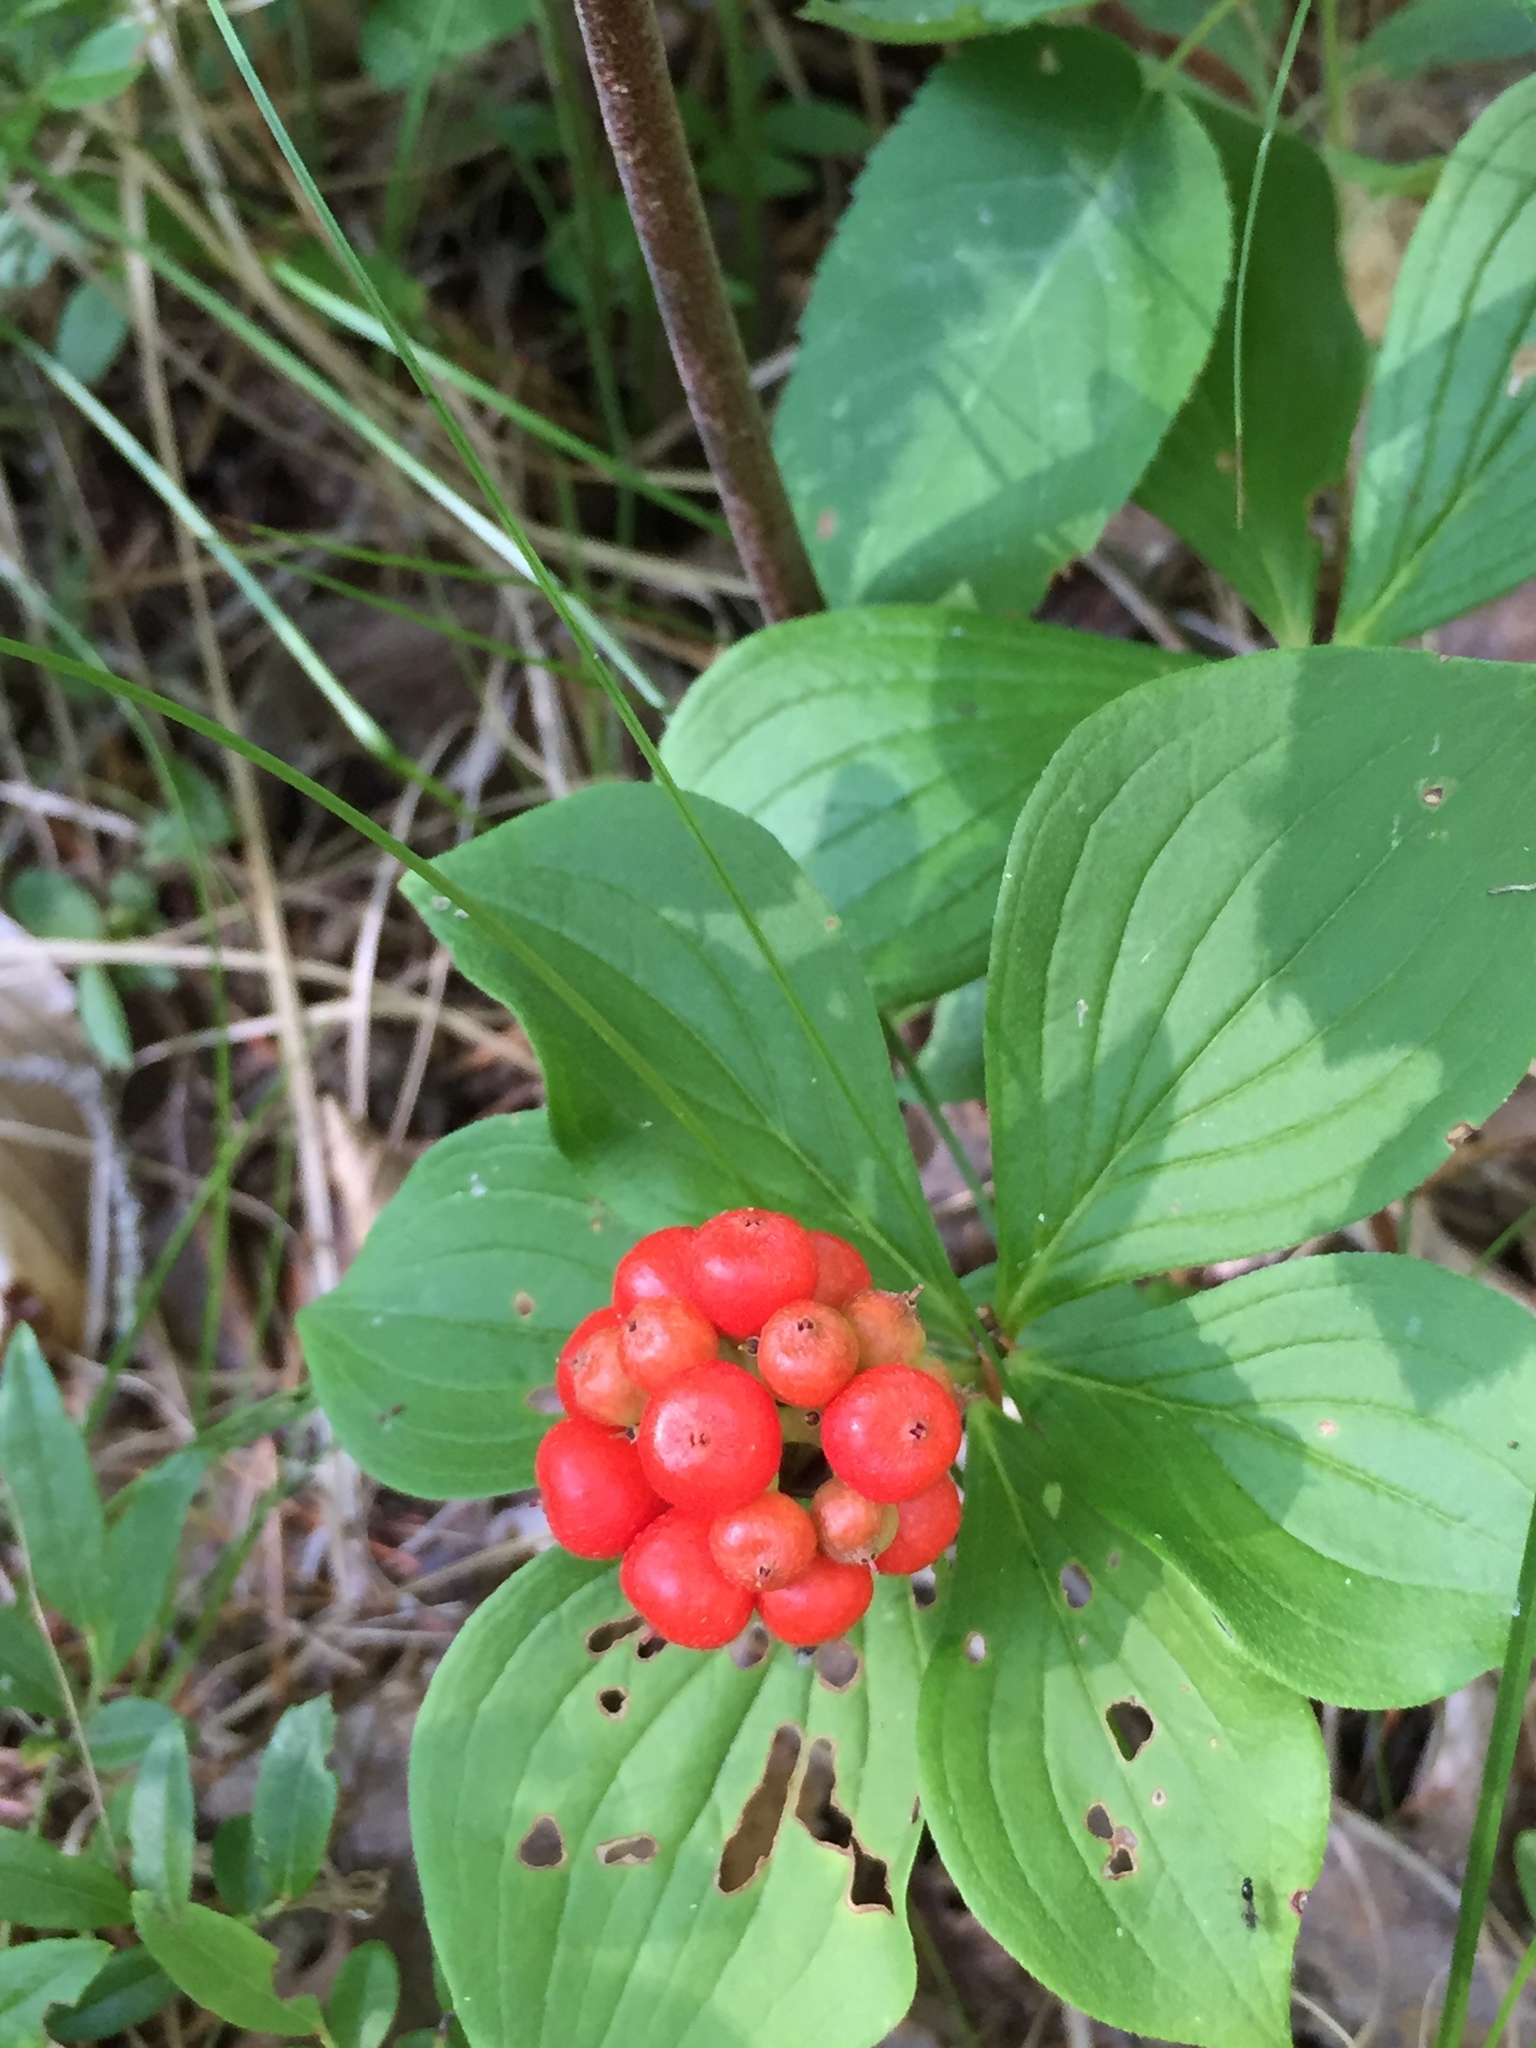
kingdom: Plantae
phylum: Tracheophyta
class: Magnoliopsida
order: Cornales
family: Cornaceae
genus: Cornus
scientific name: Cornus canadensis
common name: Creeping dogwood
